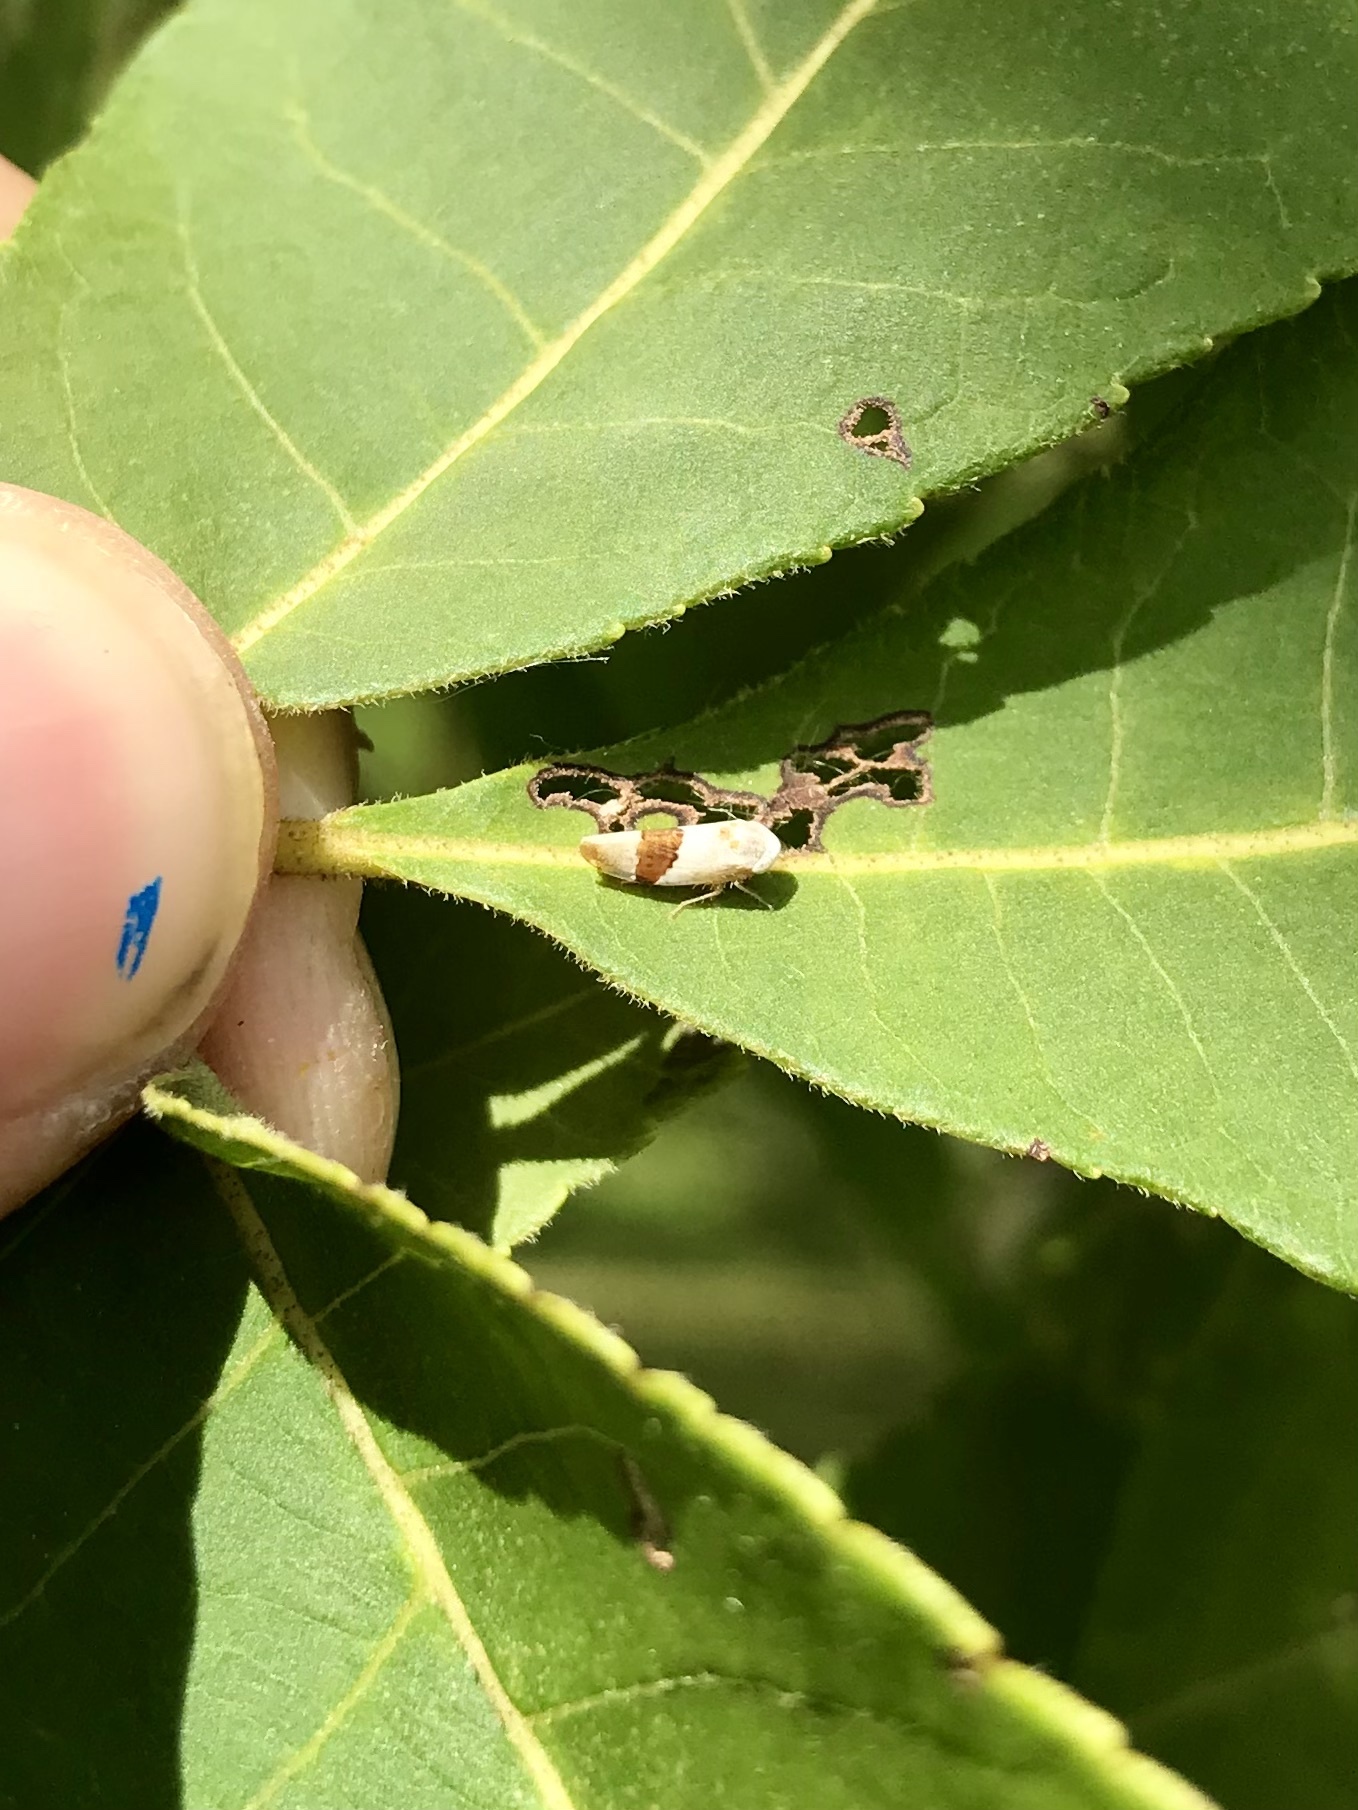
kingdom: Animalia
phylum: Arthropoda
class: Insecta
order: Hemiptera
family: Cicadellidae
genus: Norvellina
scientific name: Norvellina seminuda
